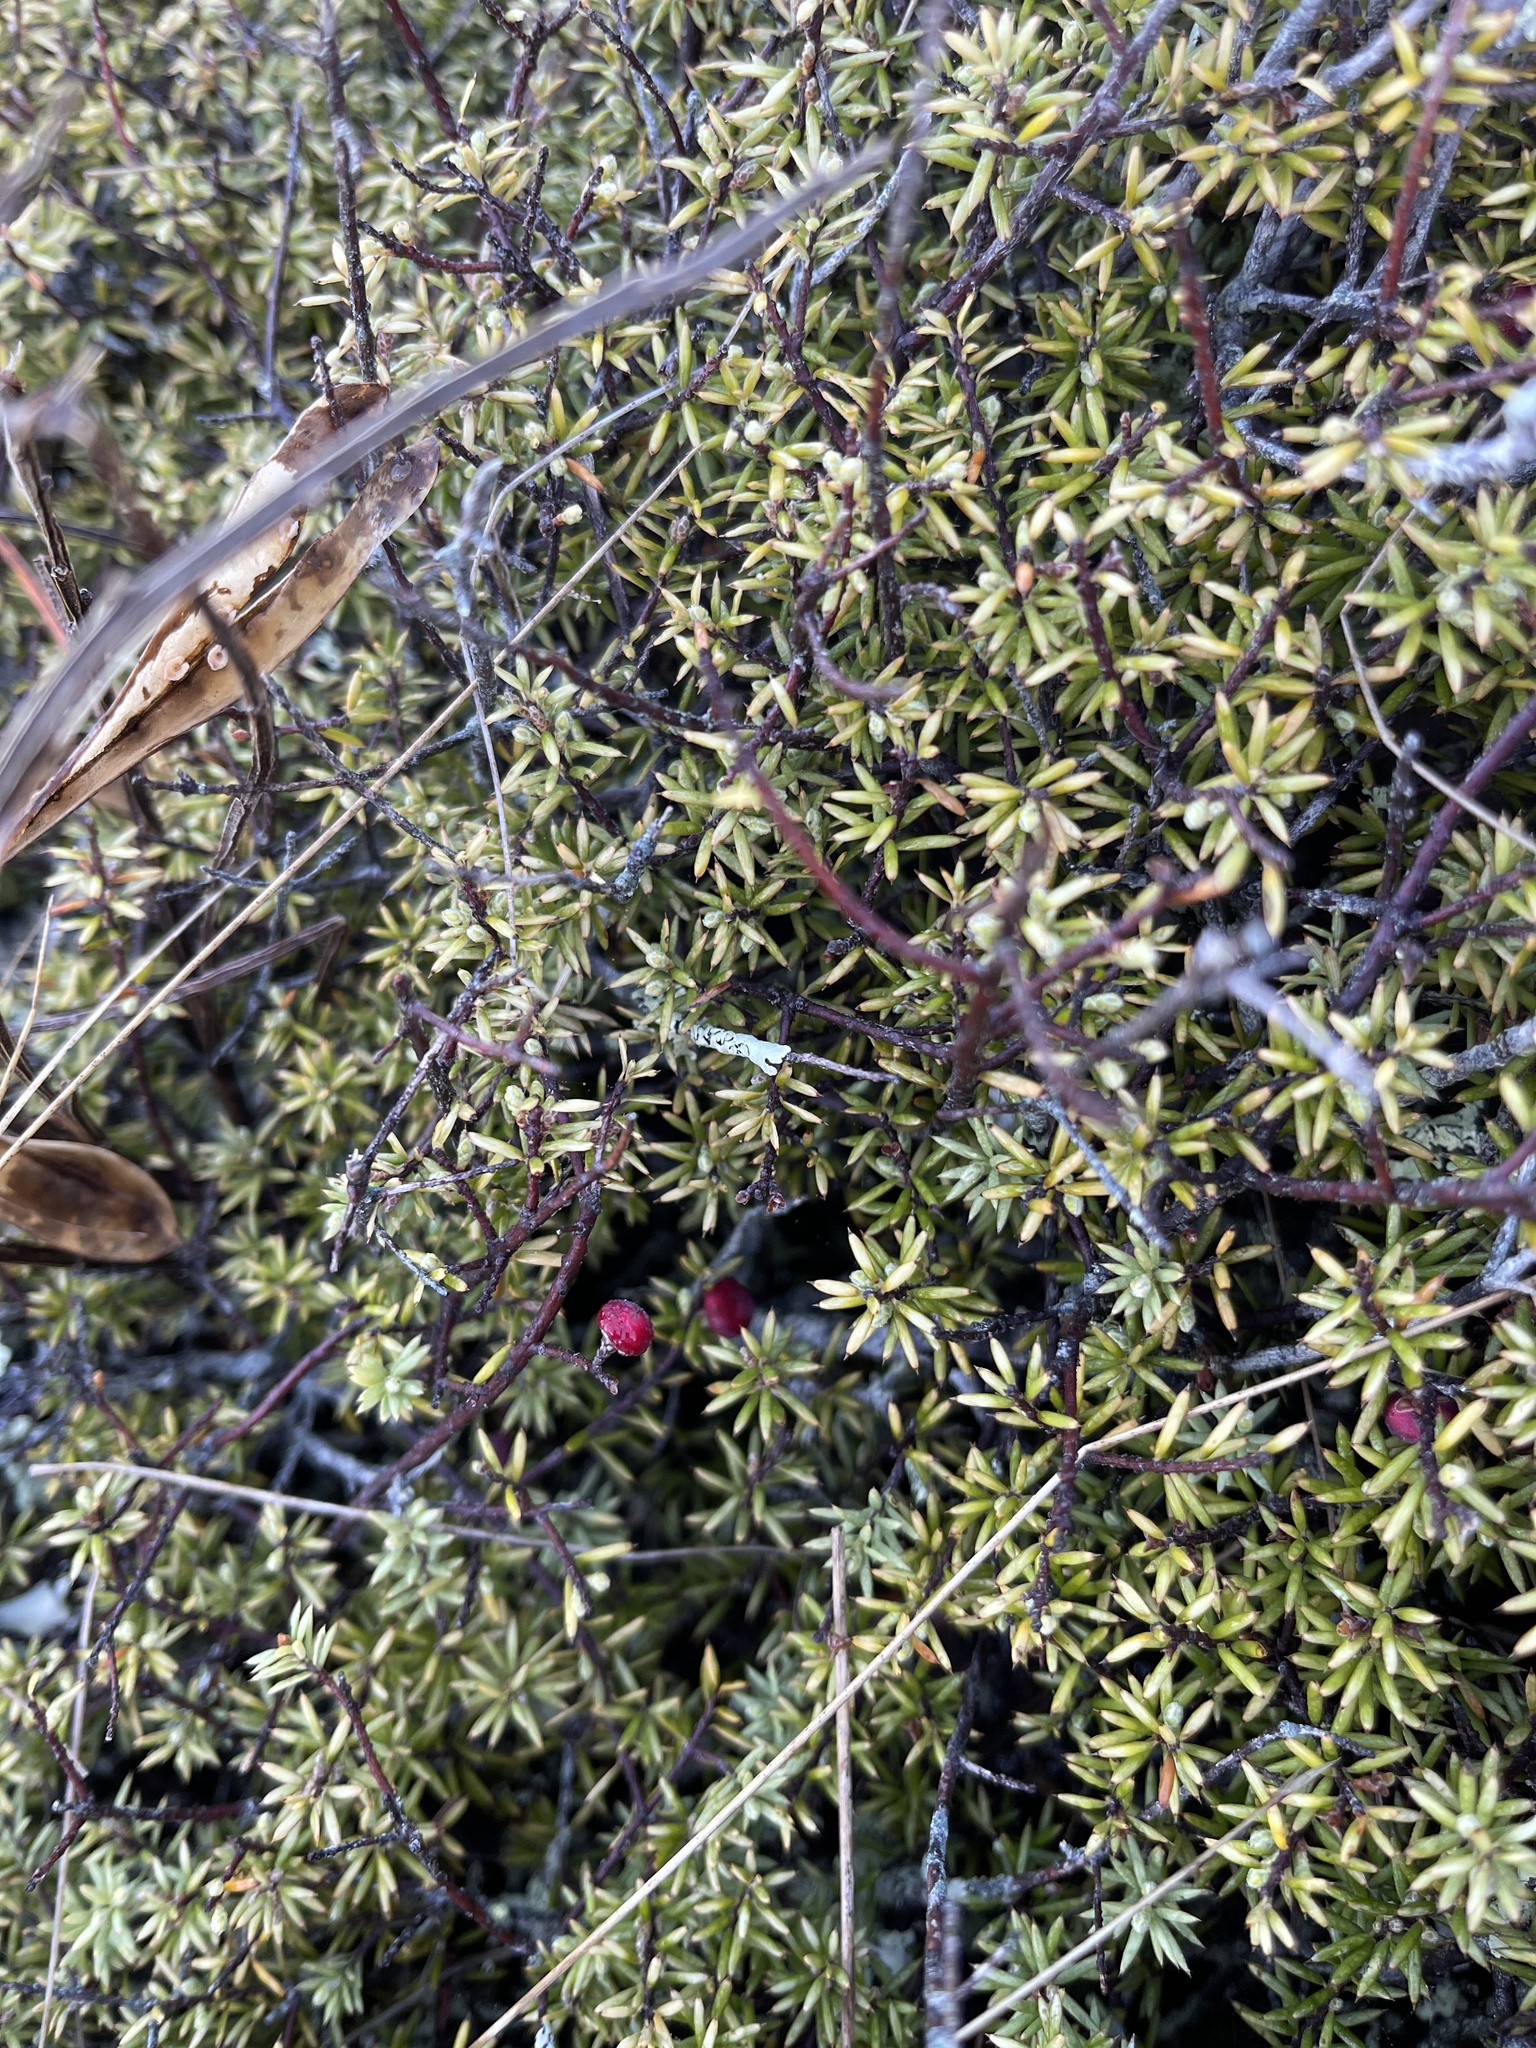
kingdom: Plantae
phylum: Tracheophyta
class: Magnoliopsida
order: Ericales
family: Ericaceae
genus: Leptecophylla
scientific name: Leptecophylla juniperina
